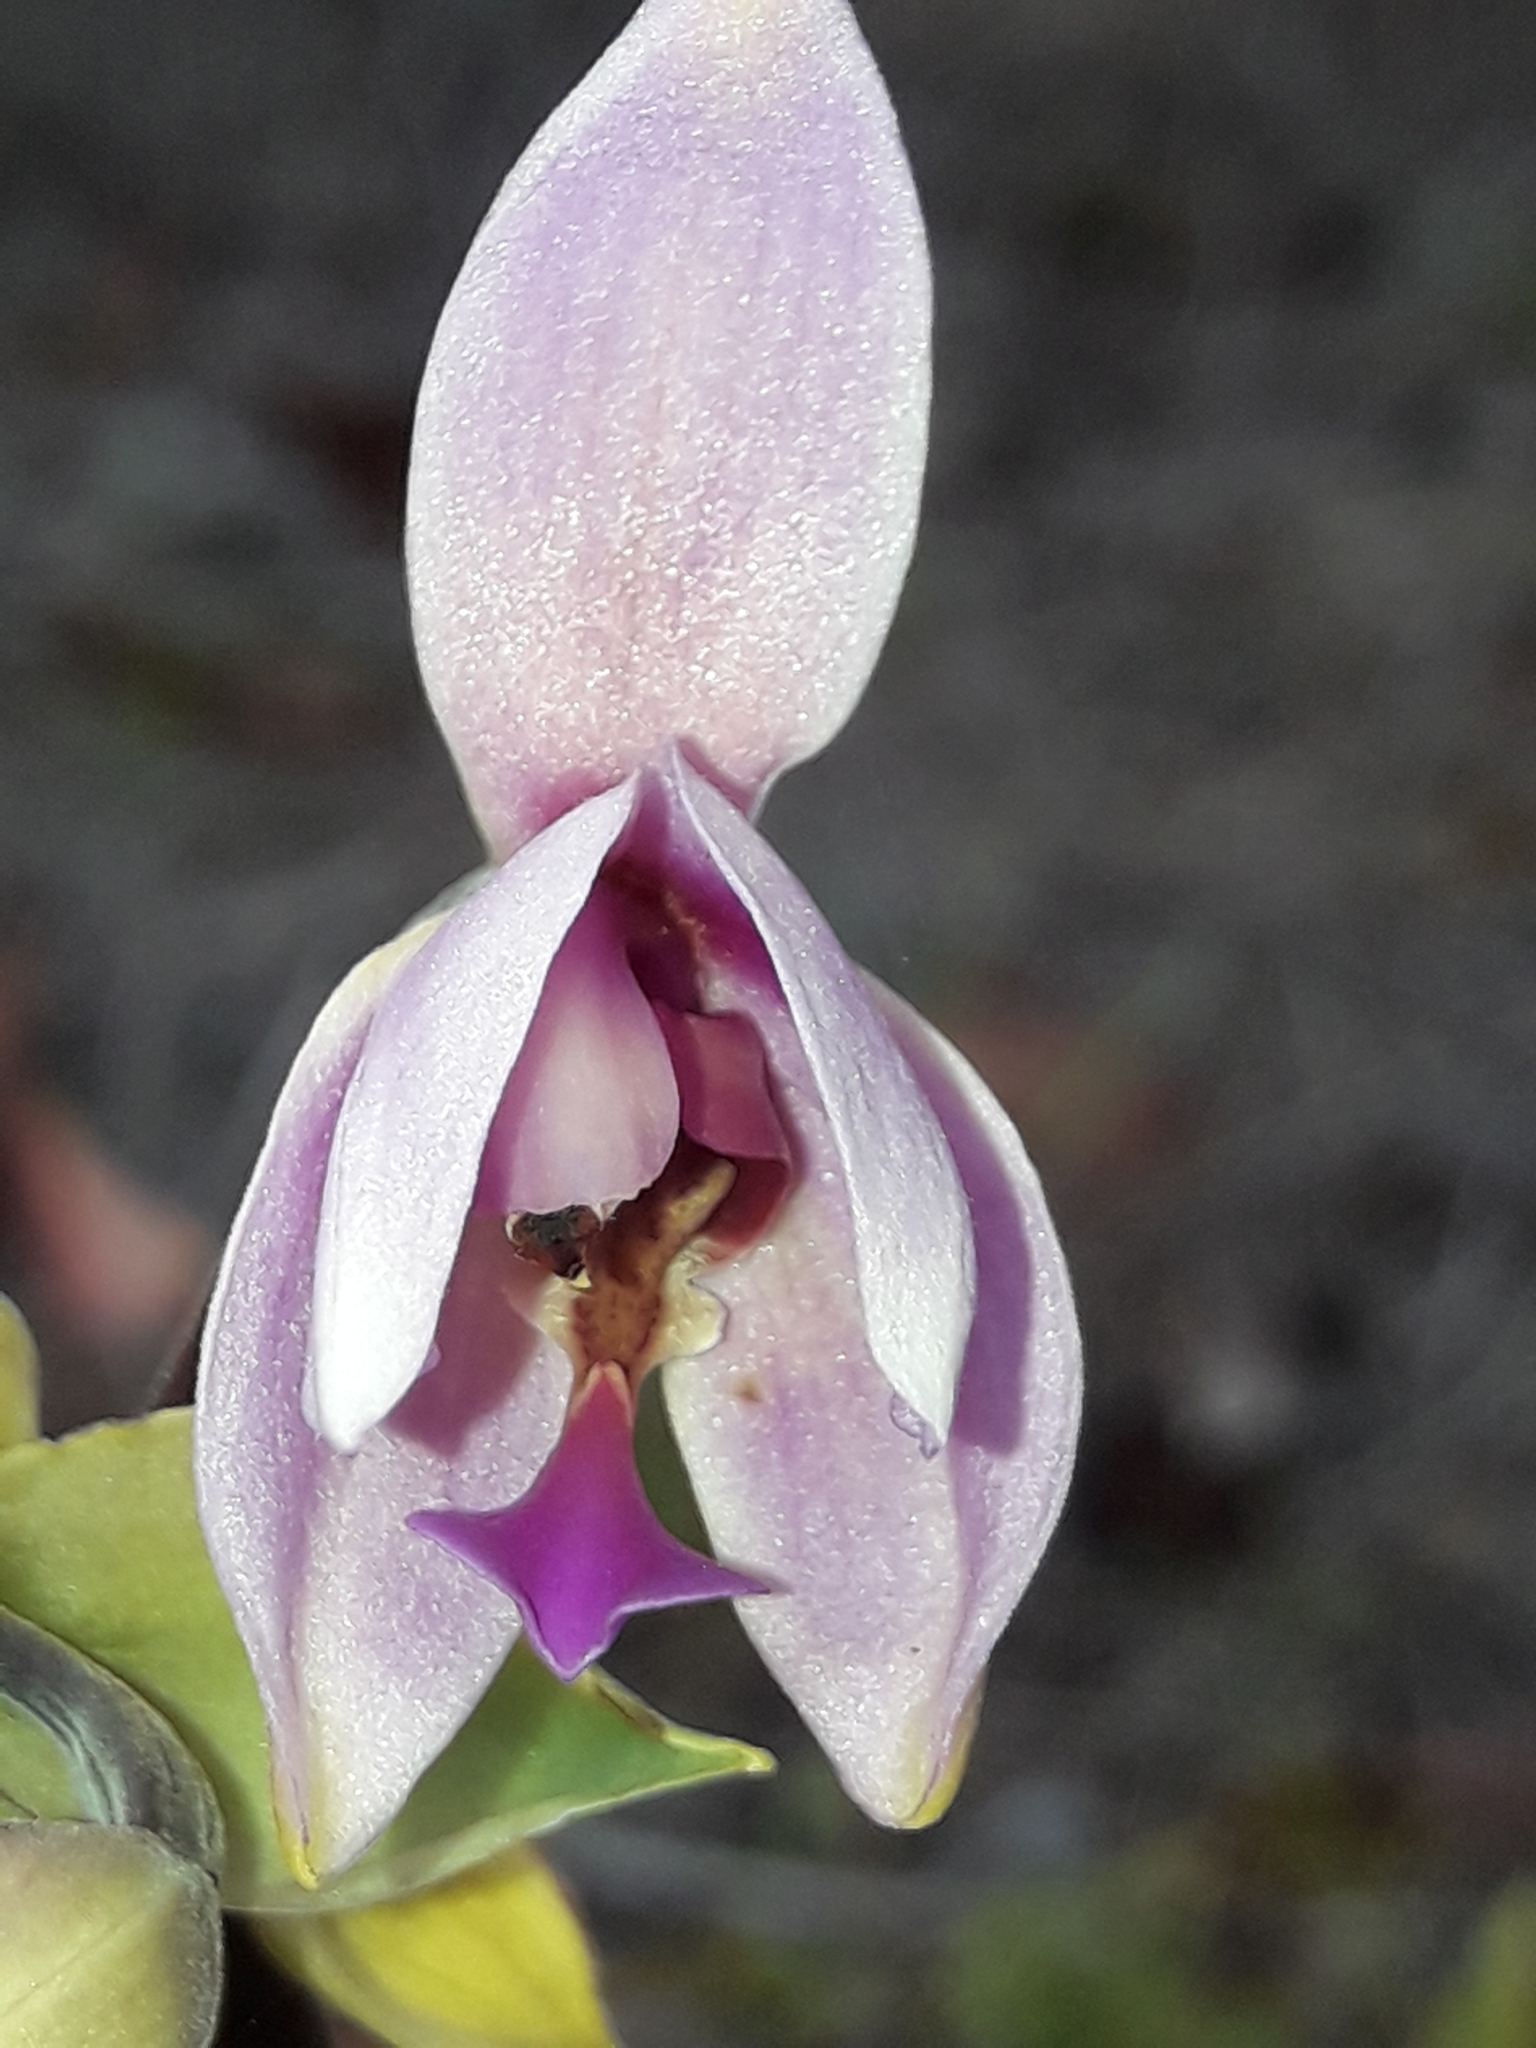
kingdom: Plantae
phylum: Tracheophyta
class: Liliopsida
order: Asparagales
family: Orchidaceae
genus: Spathoglottis
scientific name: Spathoglottis plicata
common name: Philippine ground orchid
